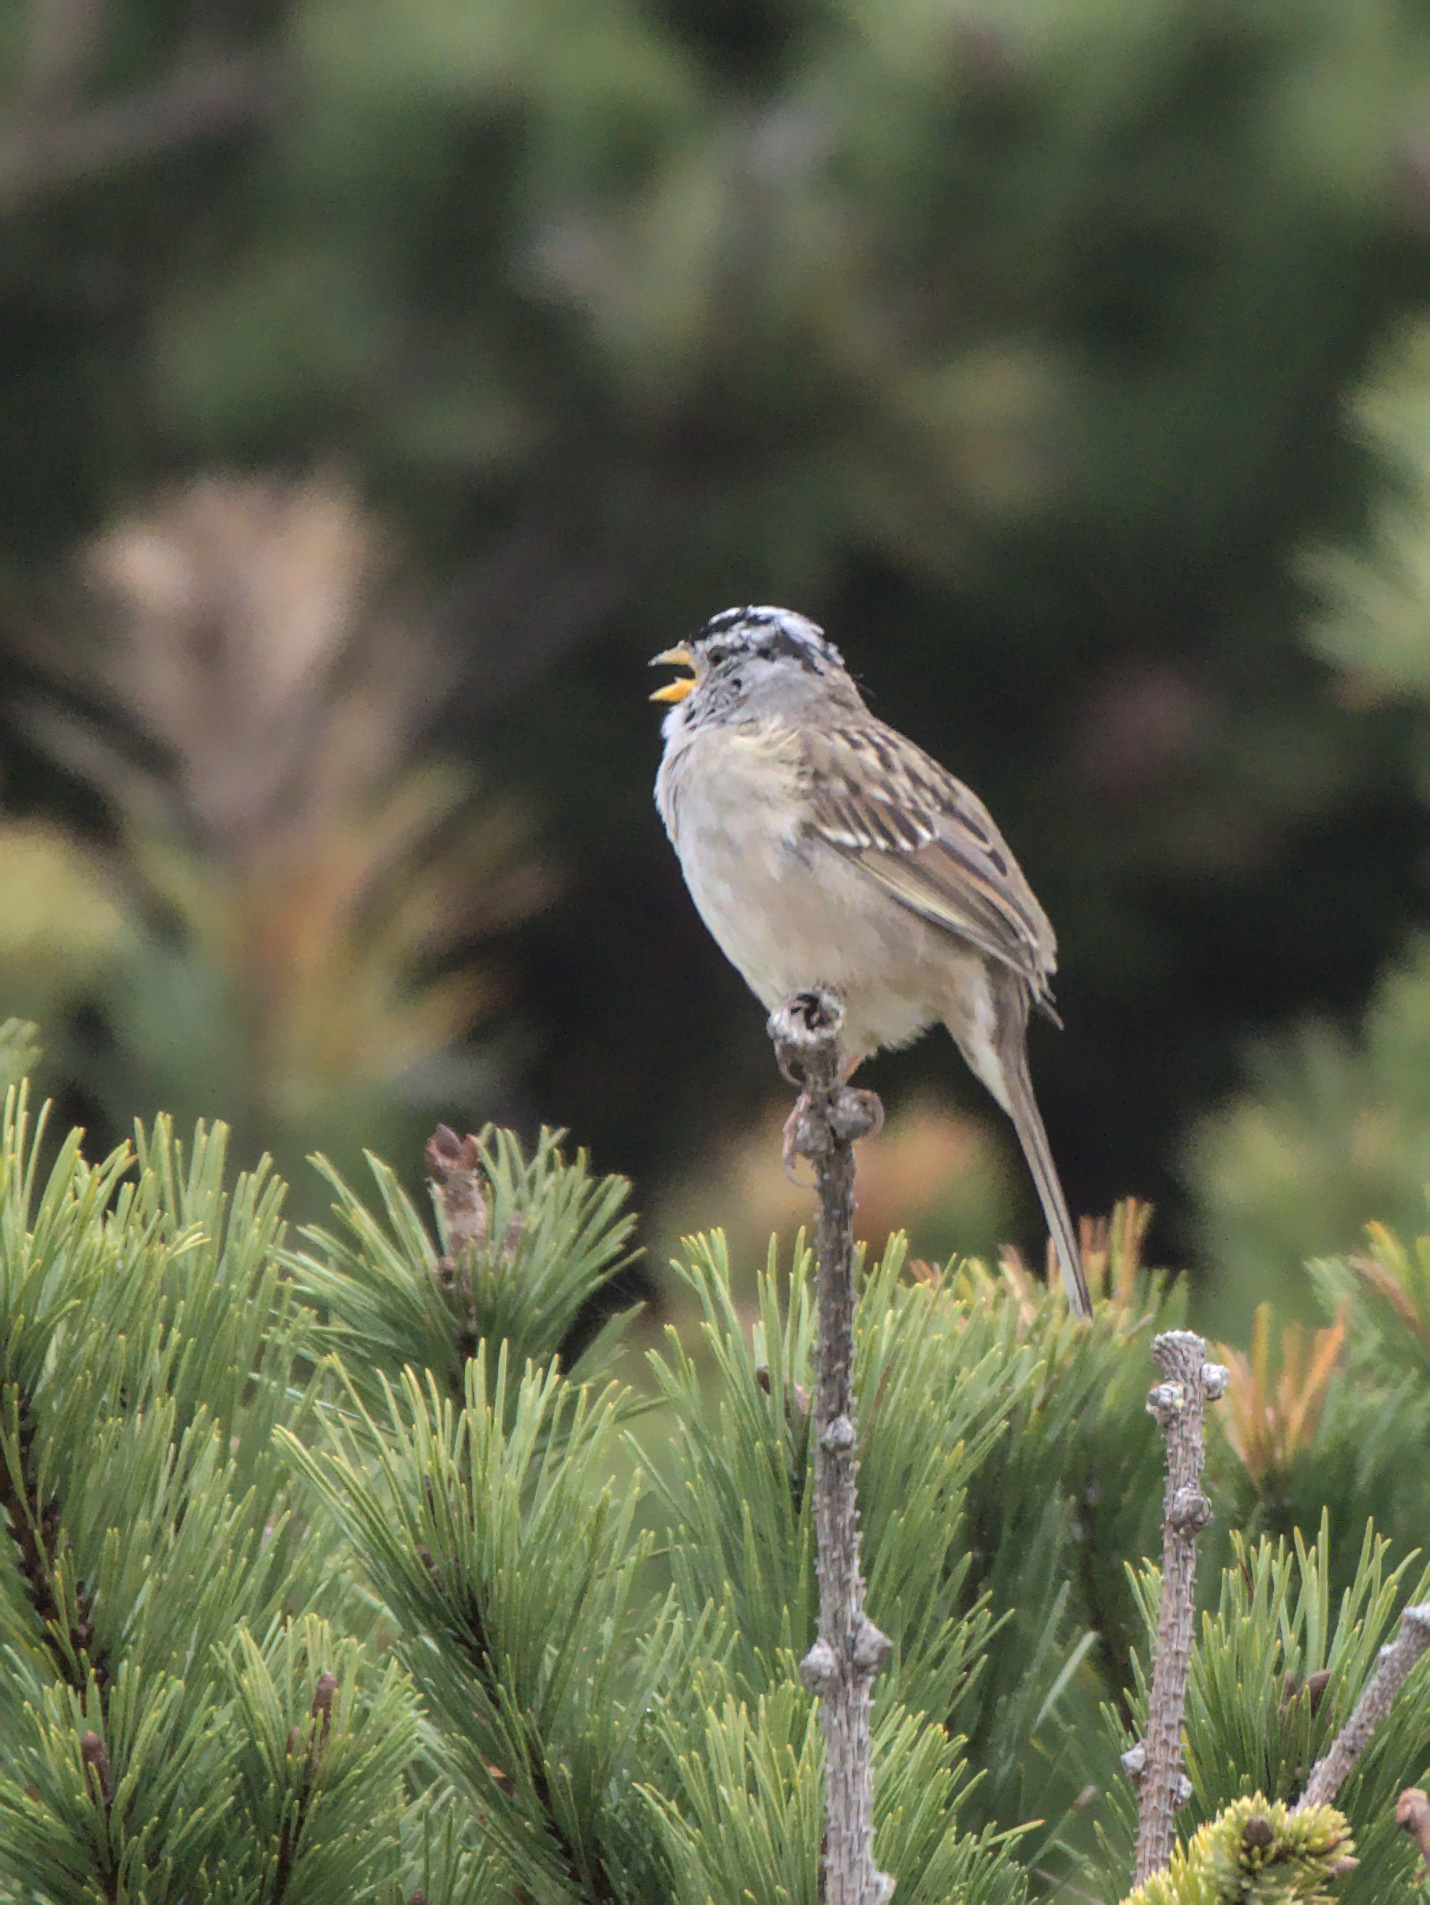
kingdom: Animalia
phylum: Chordata
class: Aves
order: Passeriformes
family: Passerellidae
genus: Zonotrichia
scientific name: Zonotrichia leucophrys
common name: White-crowned sparrow
